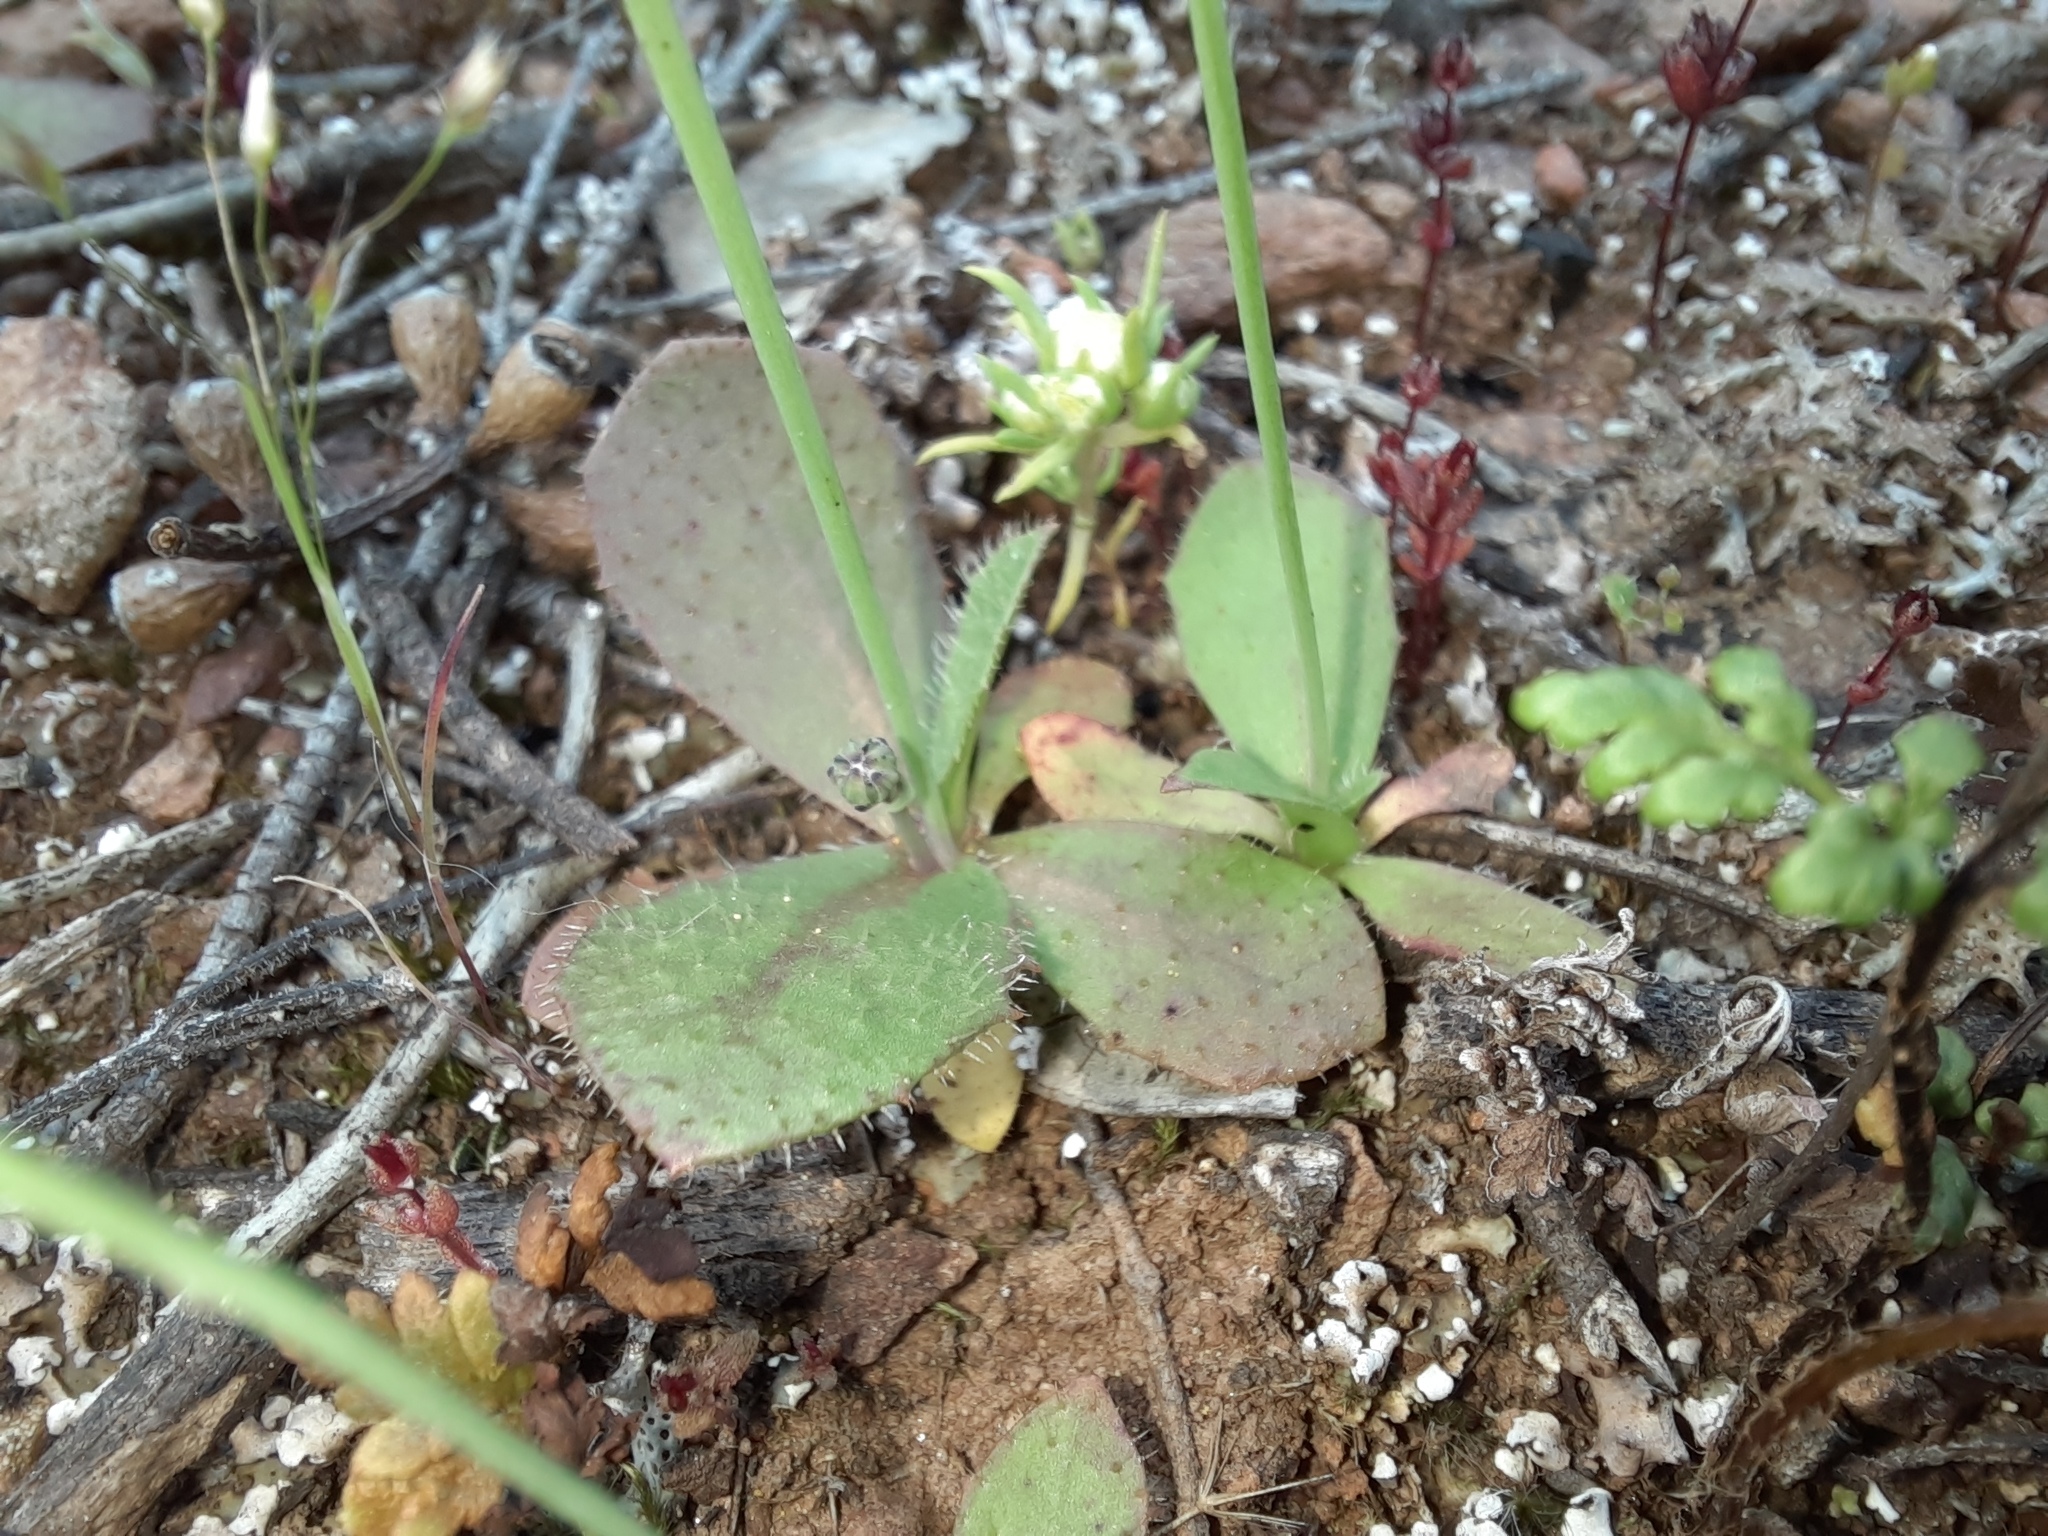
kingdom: Plantae
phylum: Tracheophyta
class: Magnoliopsida
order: Asterales
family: Asteraceae
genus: Hypochaeris
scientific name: Hypochaeris glabra
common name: Smooth catsear
